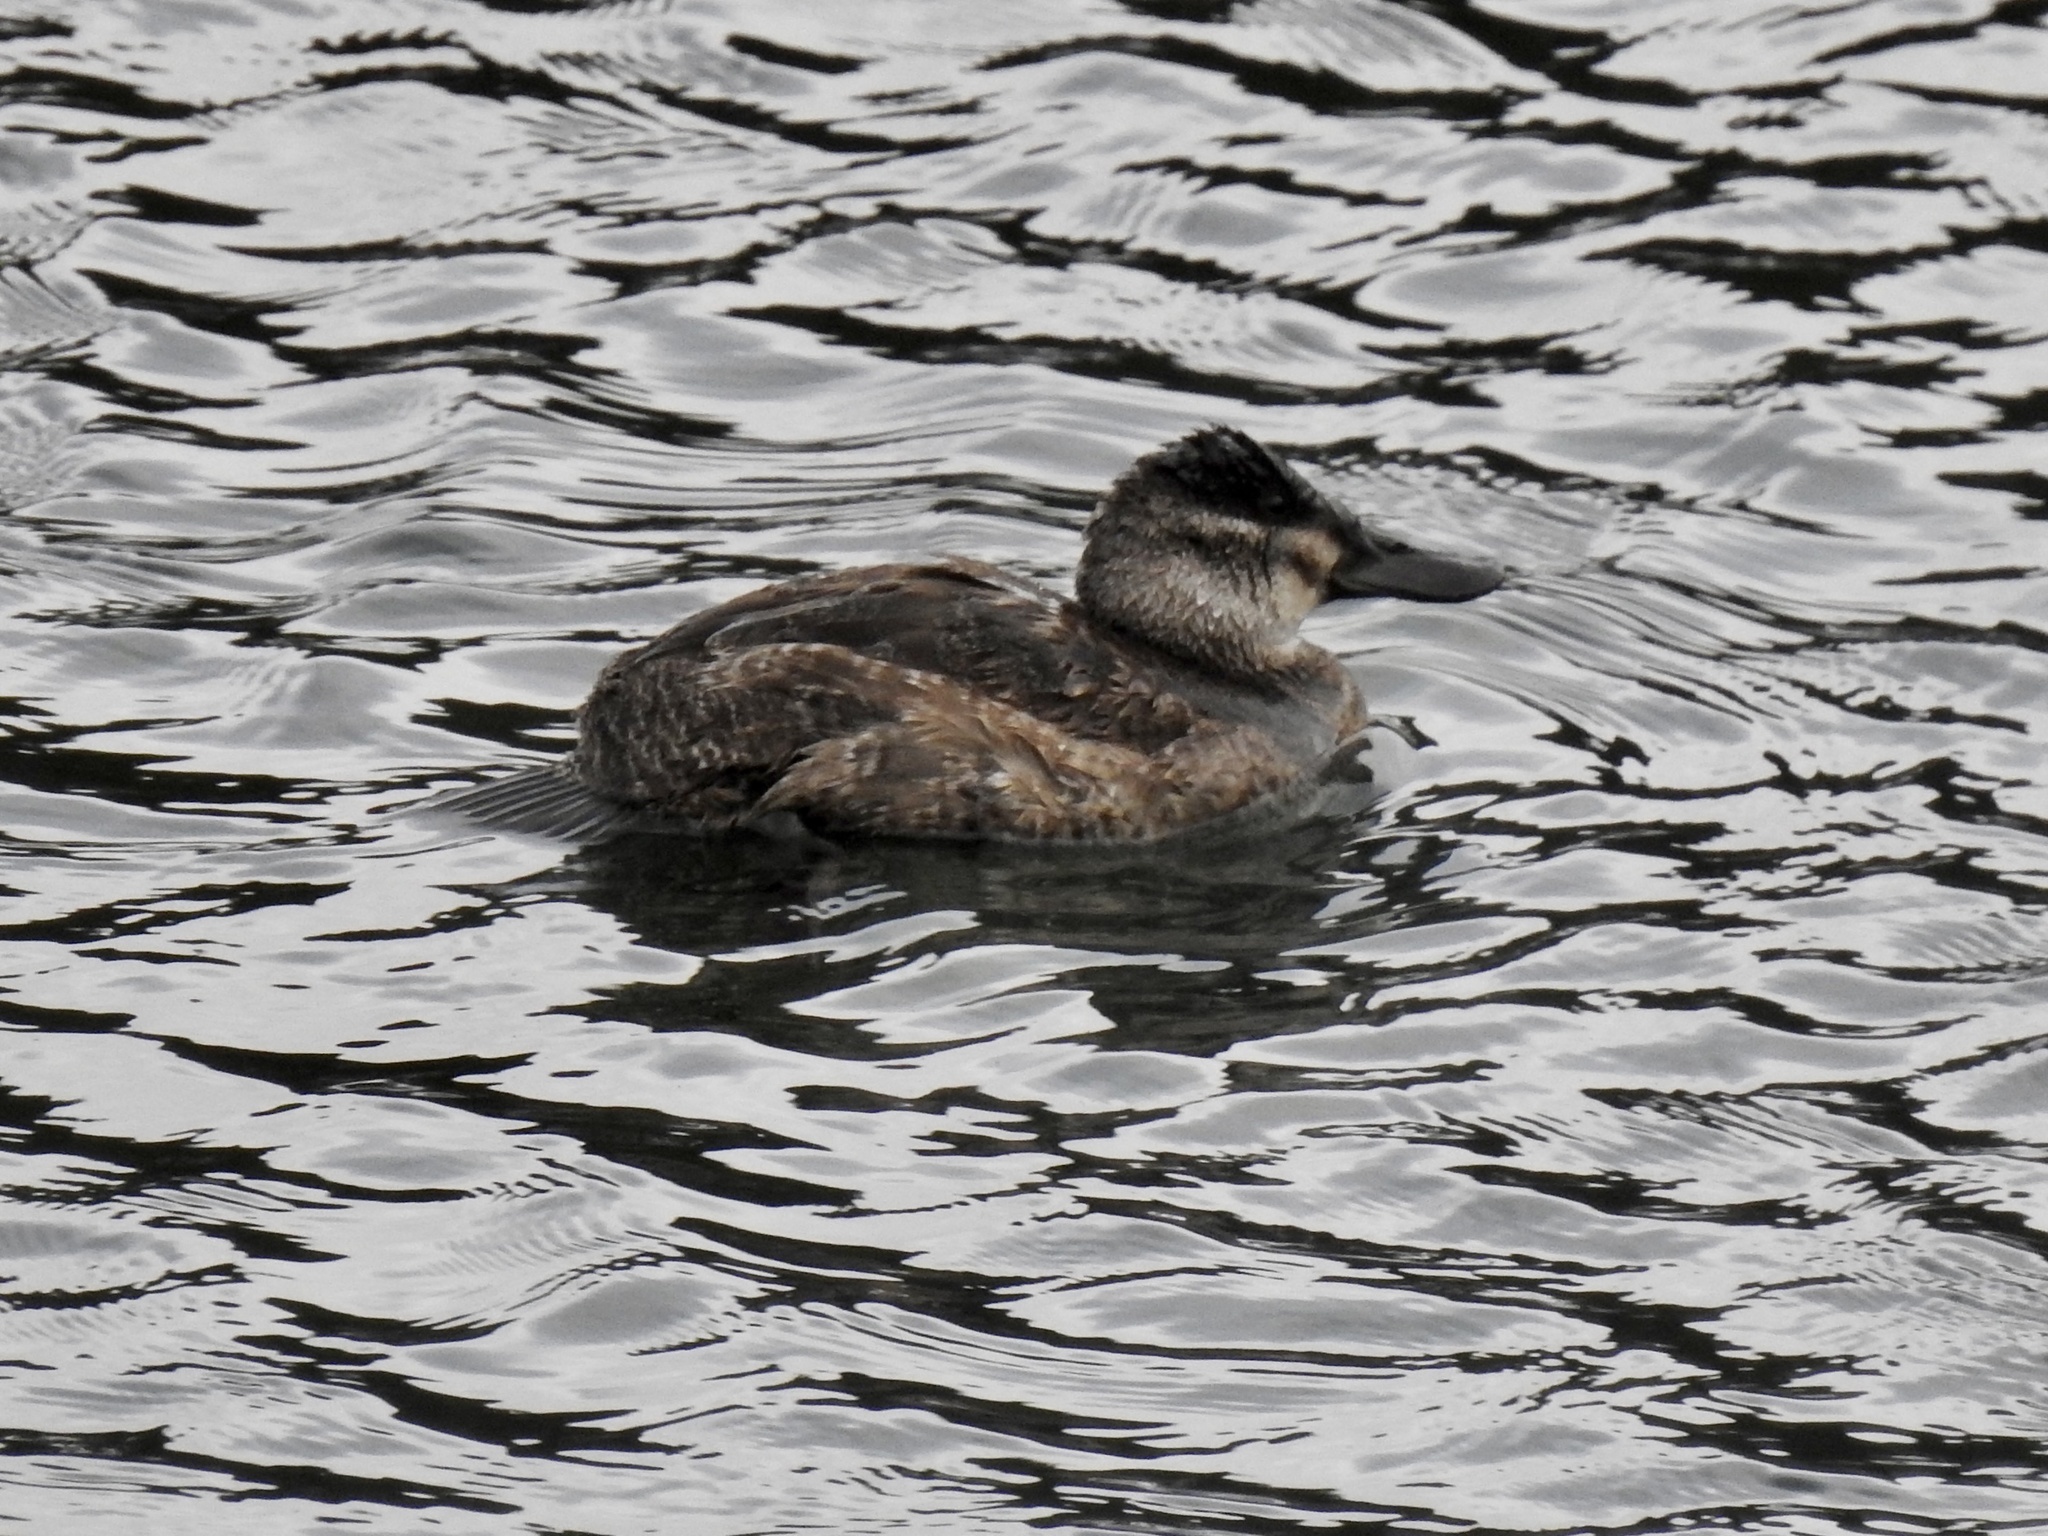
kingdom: Animalia
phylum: Chordata
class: Aves
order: Anseriformes
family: Anatidae
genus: Oxyura
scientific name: Oxyura jamaicensis
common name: Ruddy duck
